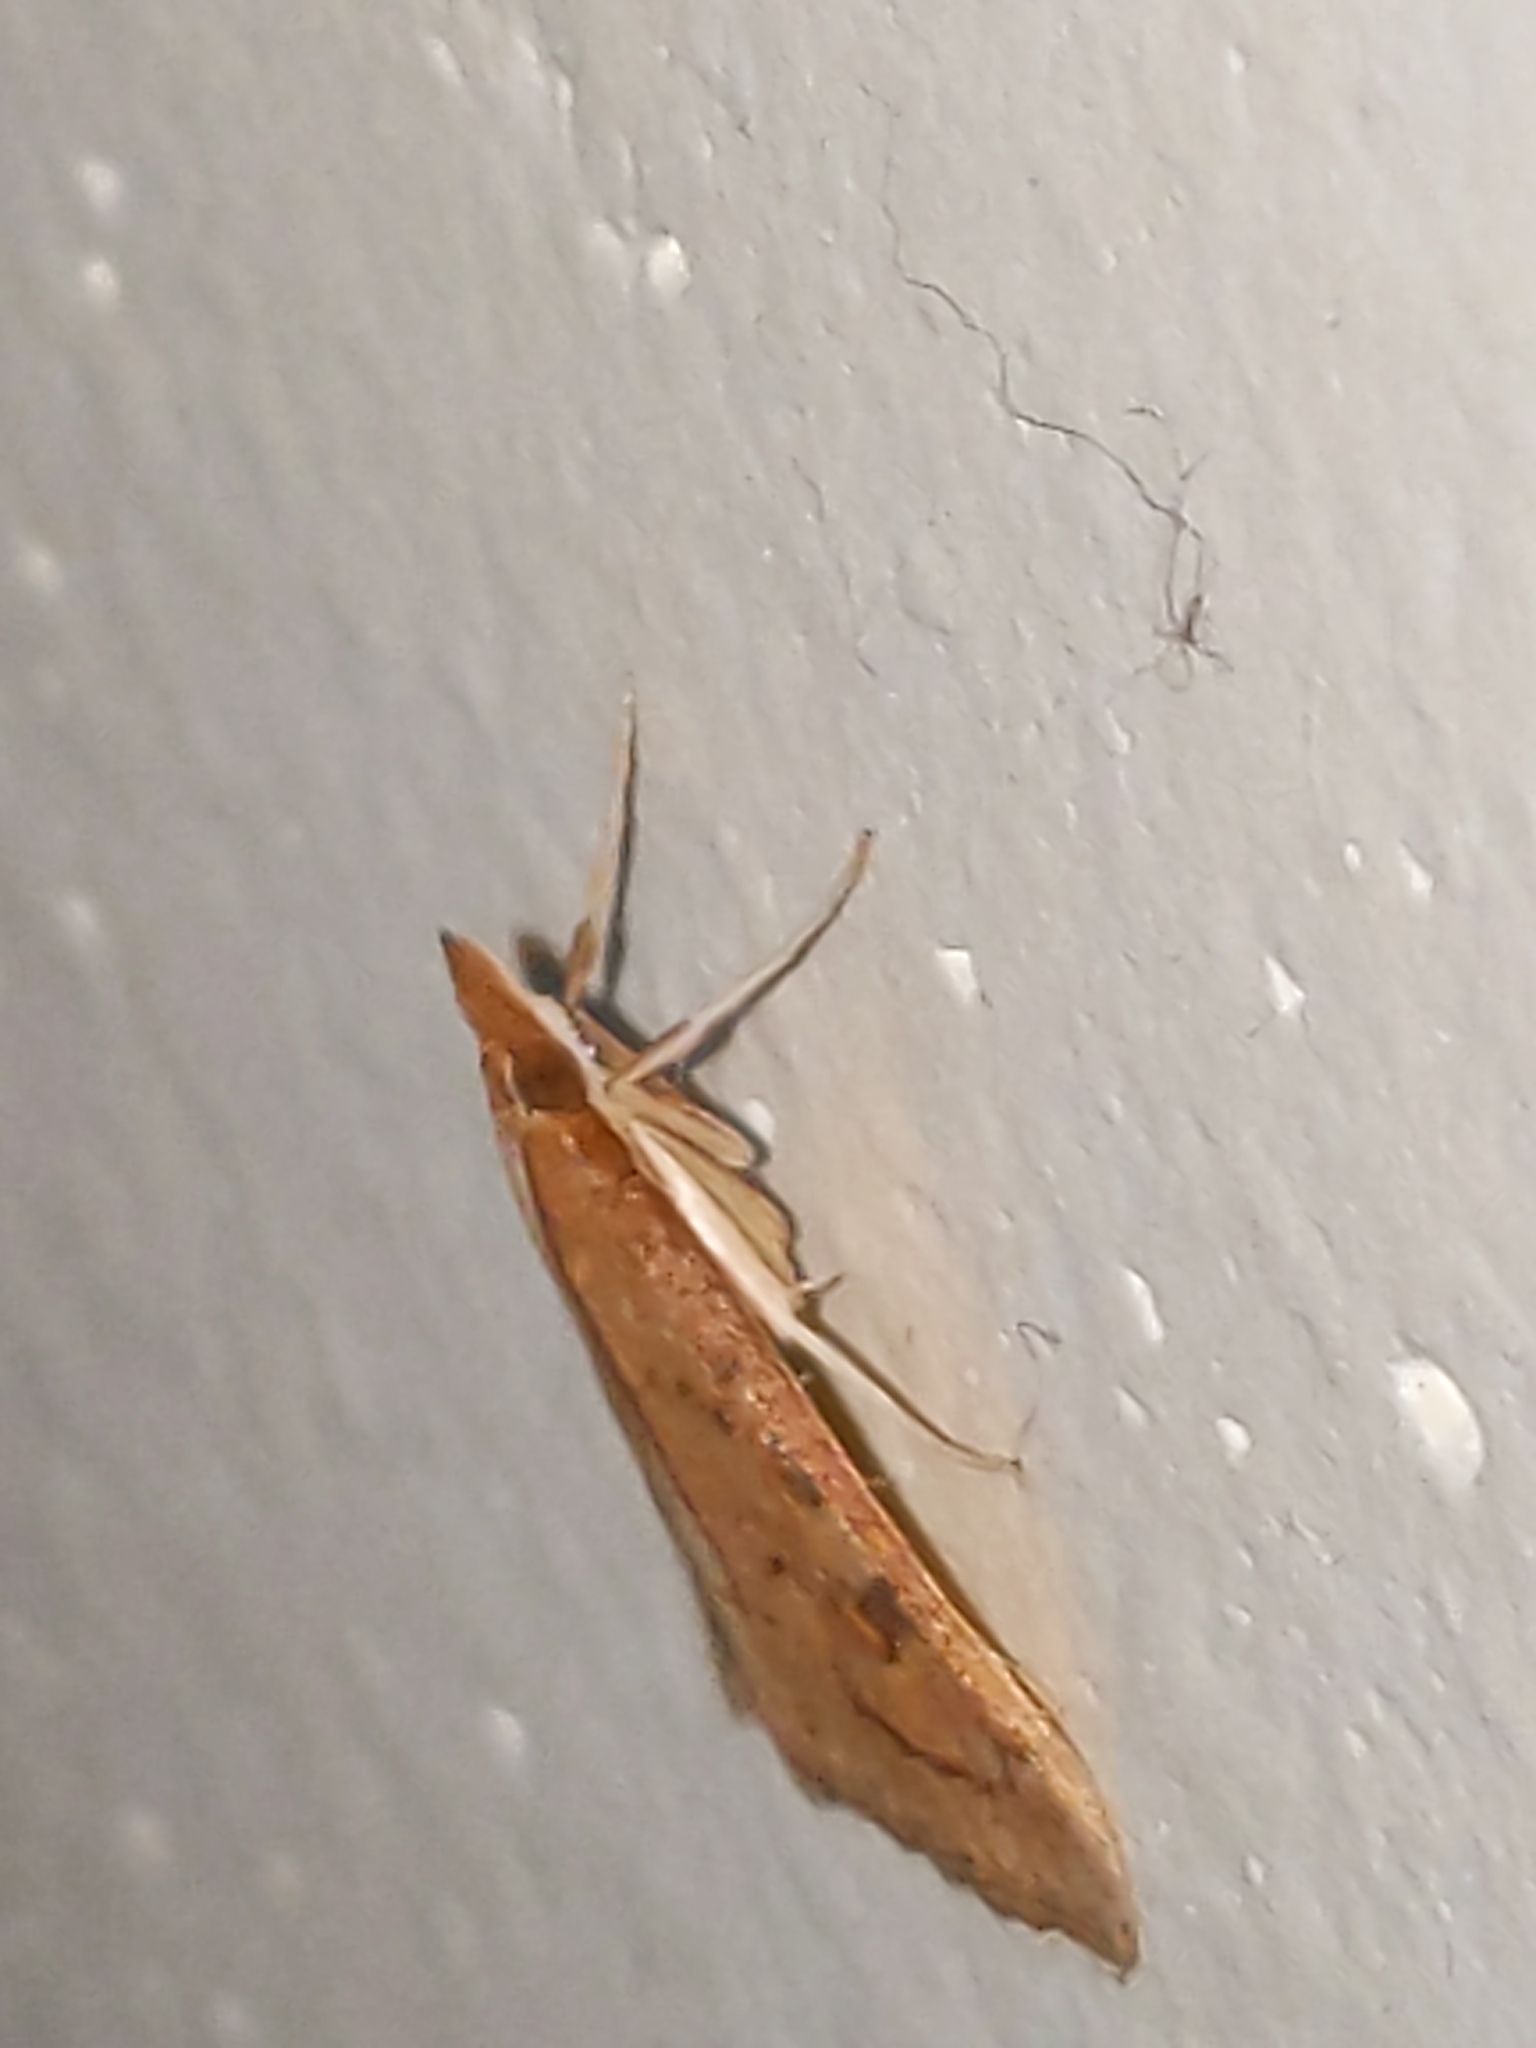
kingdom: Animalia
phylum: Arthropoda
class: Insecta
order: Lepidoptera
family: Crambidae
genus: Udea
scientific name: Udea rubigalis
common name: Celery leaftier moth
